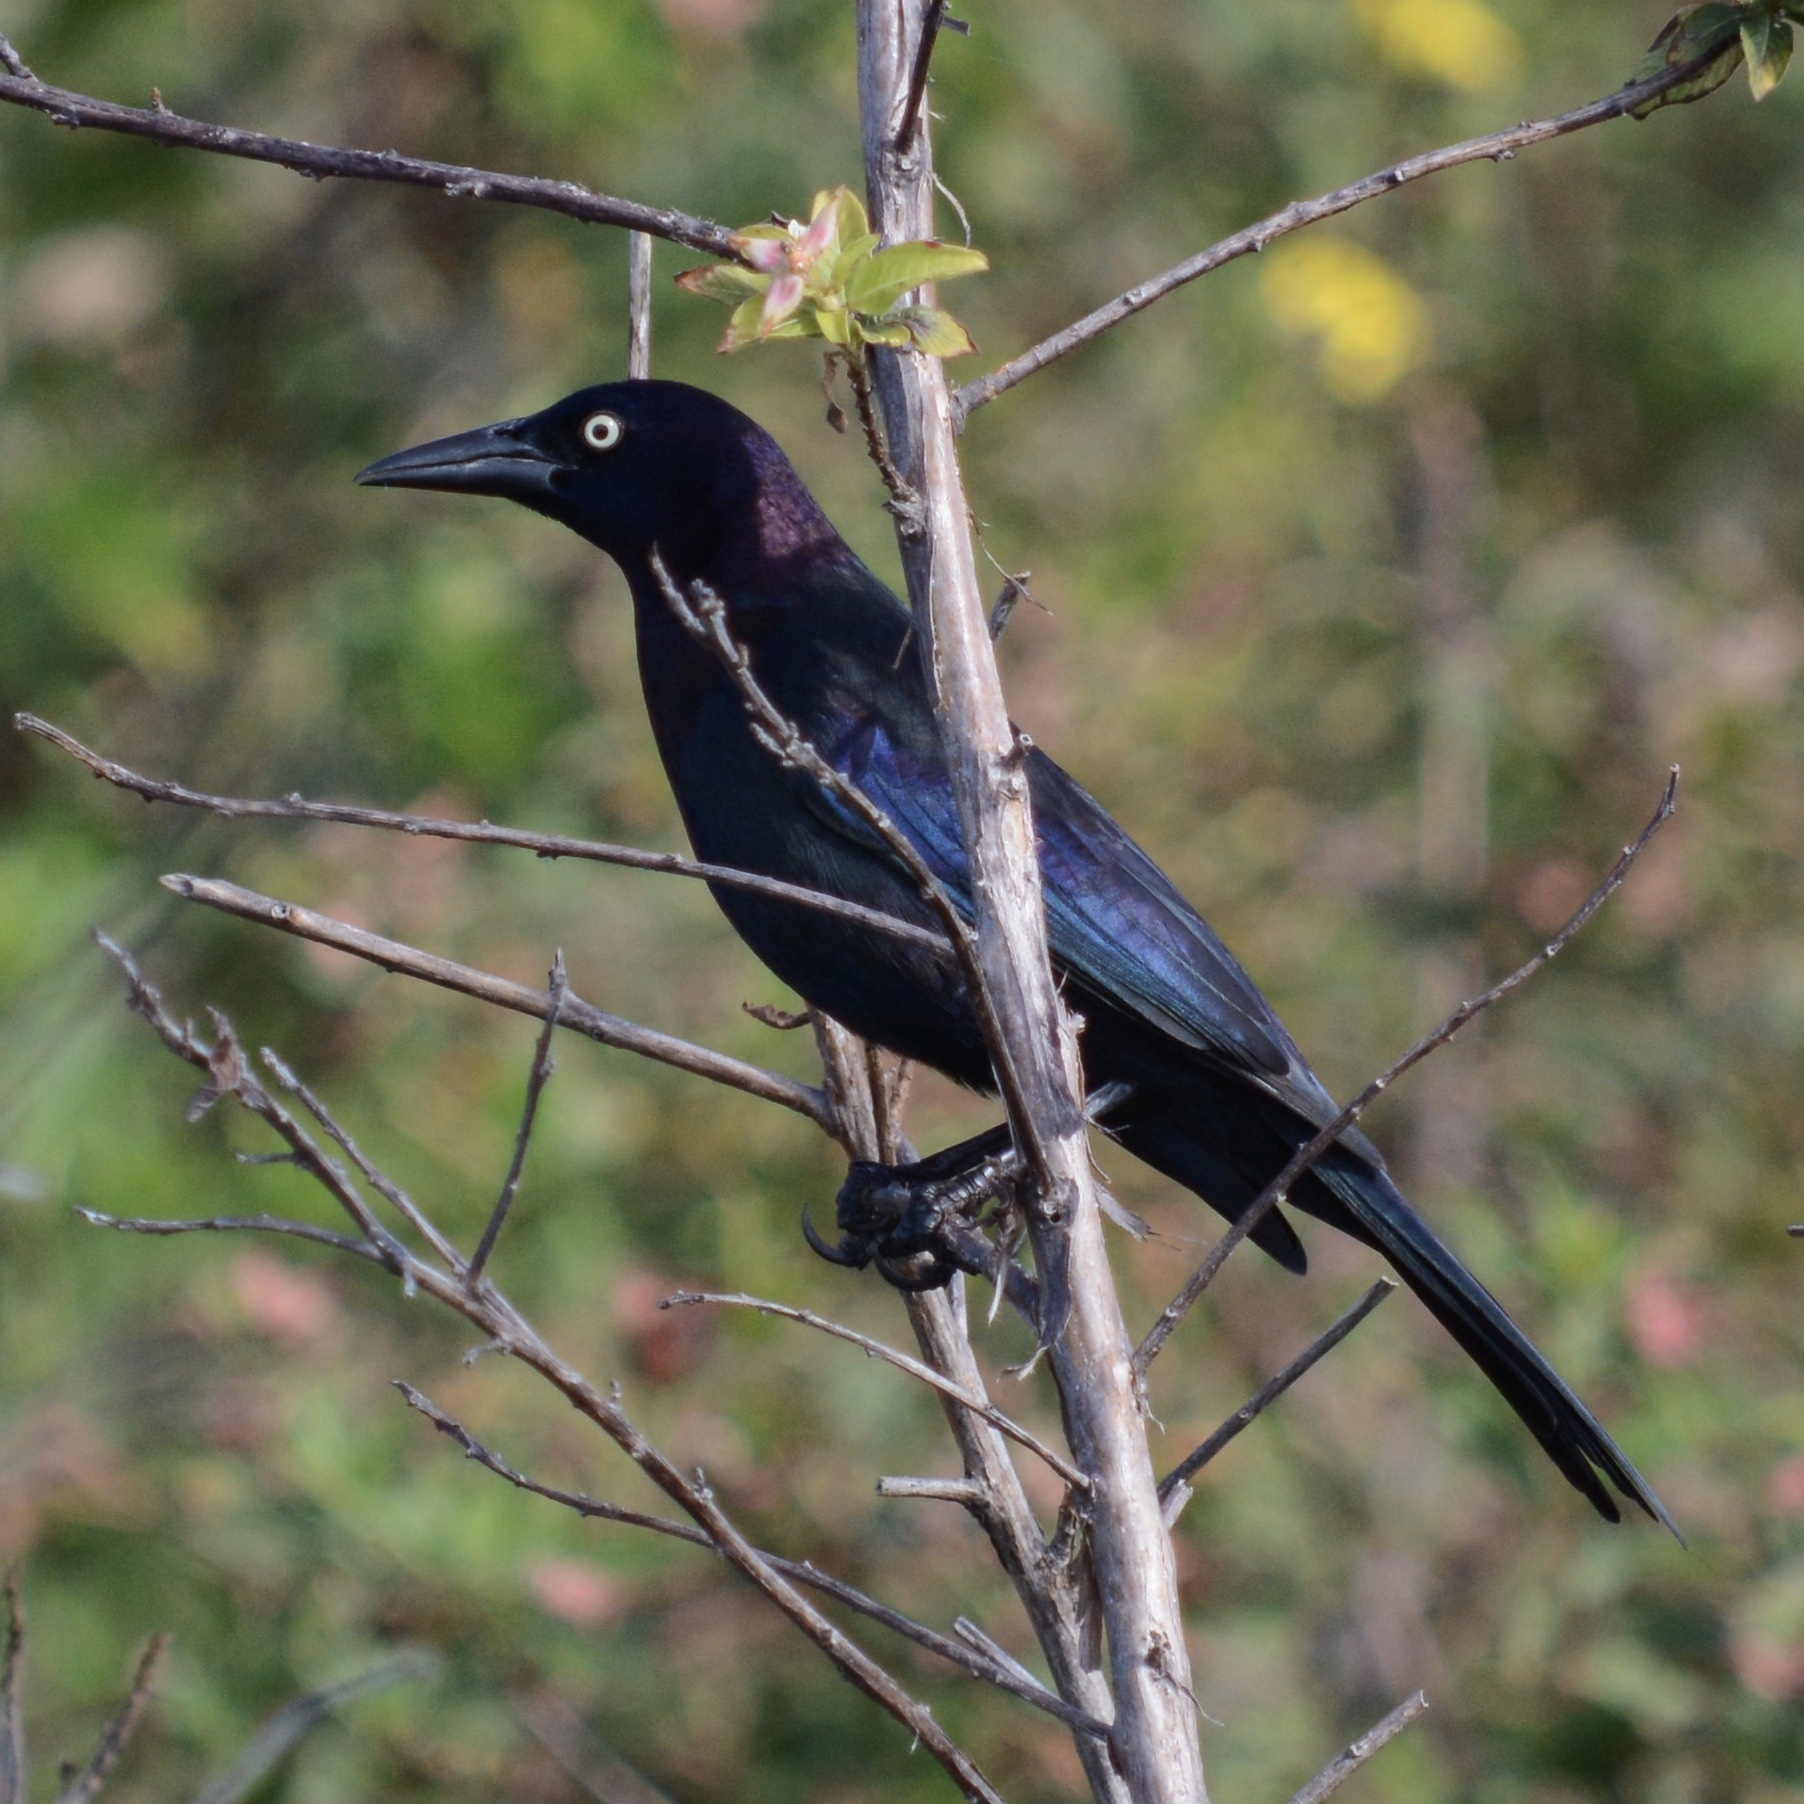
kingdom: Animalia
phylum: Chordata
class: Aves
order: Passeriformes
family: Icteridae
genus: Quiscalus
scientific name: Quiscalus quiscula
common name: Common grackle
